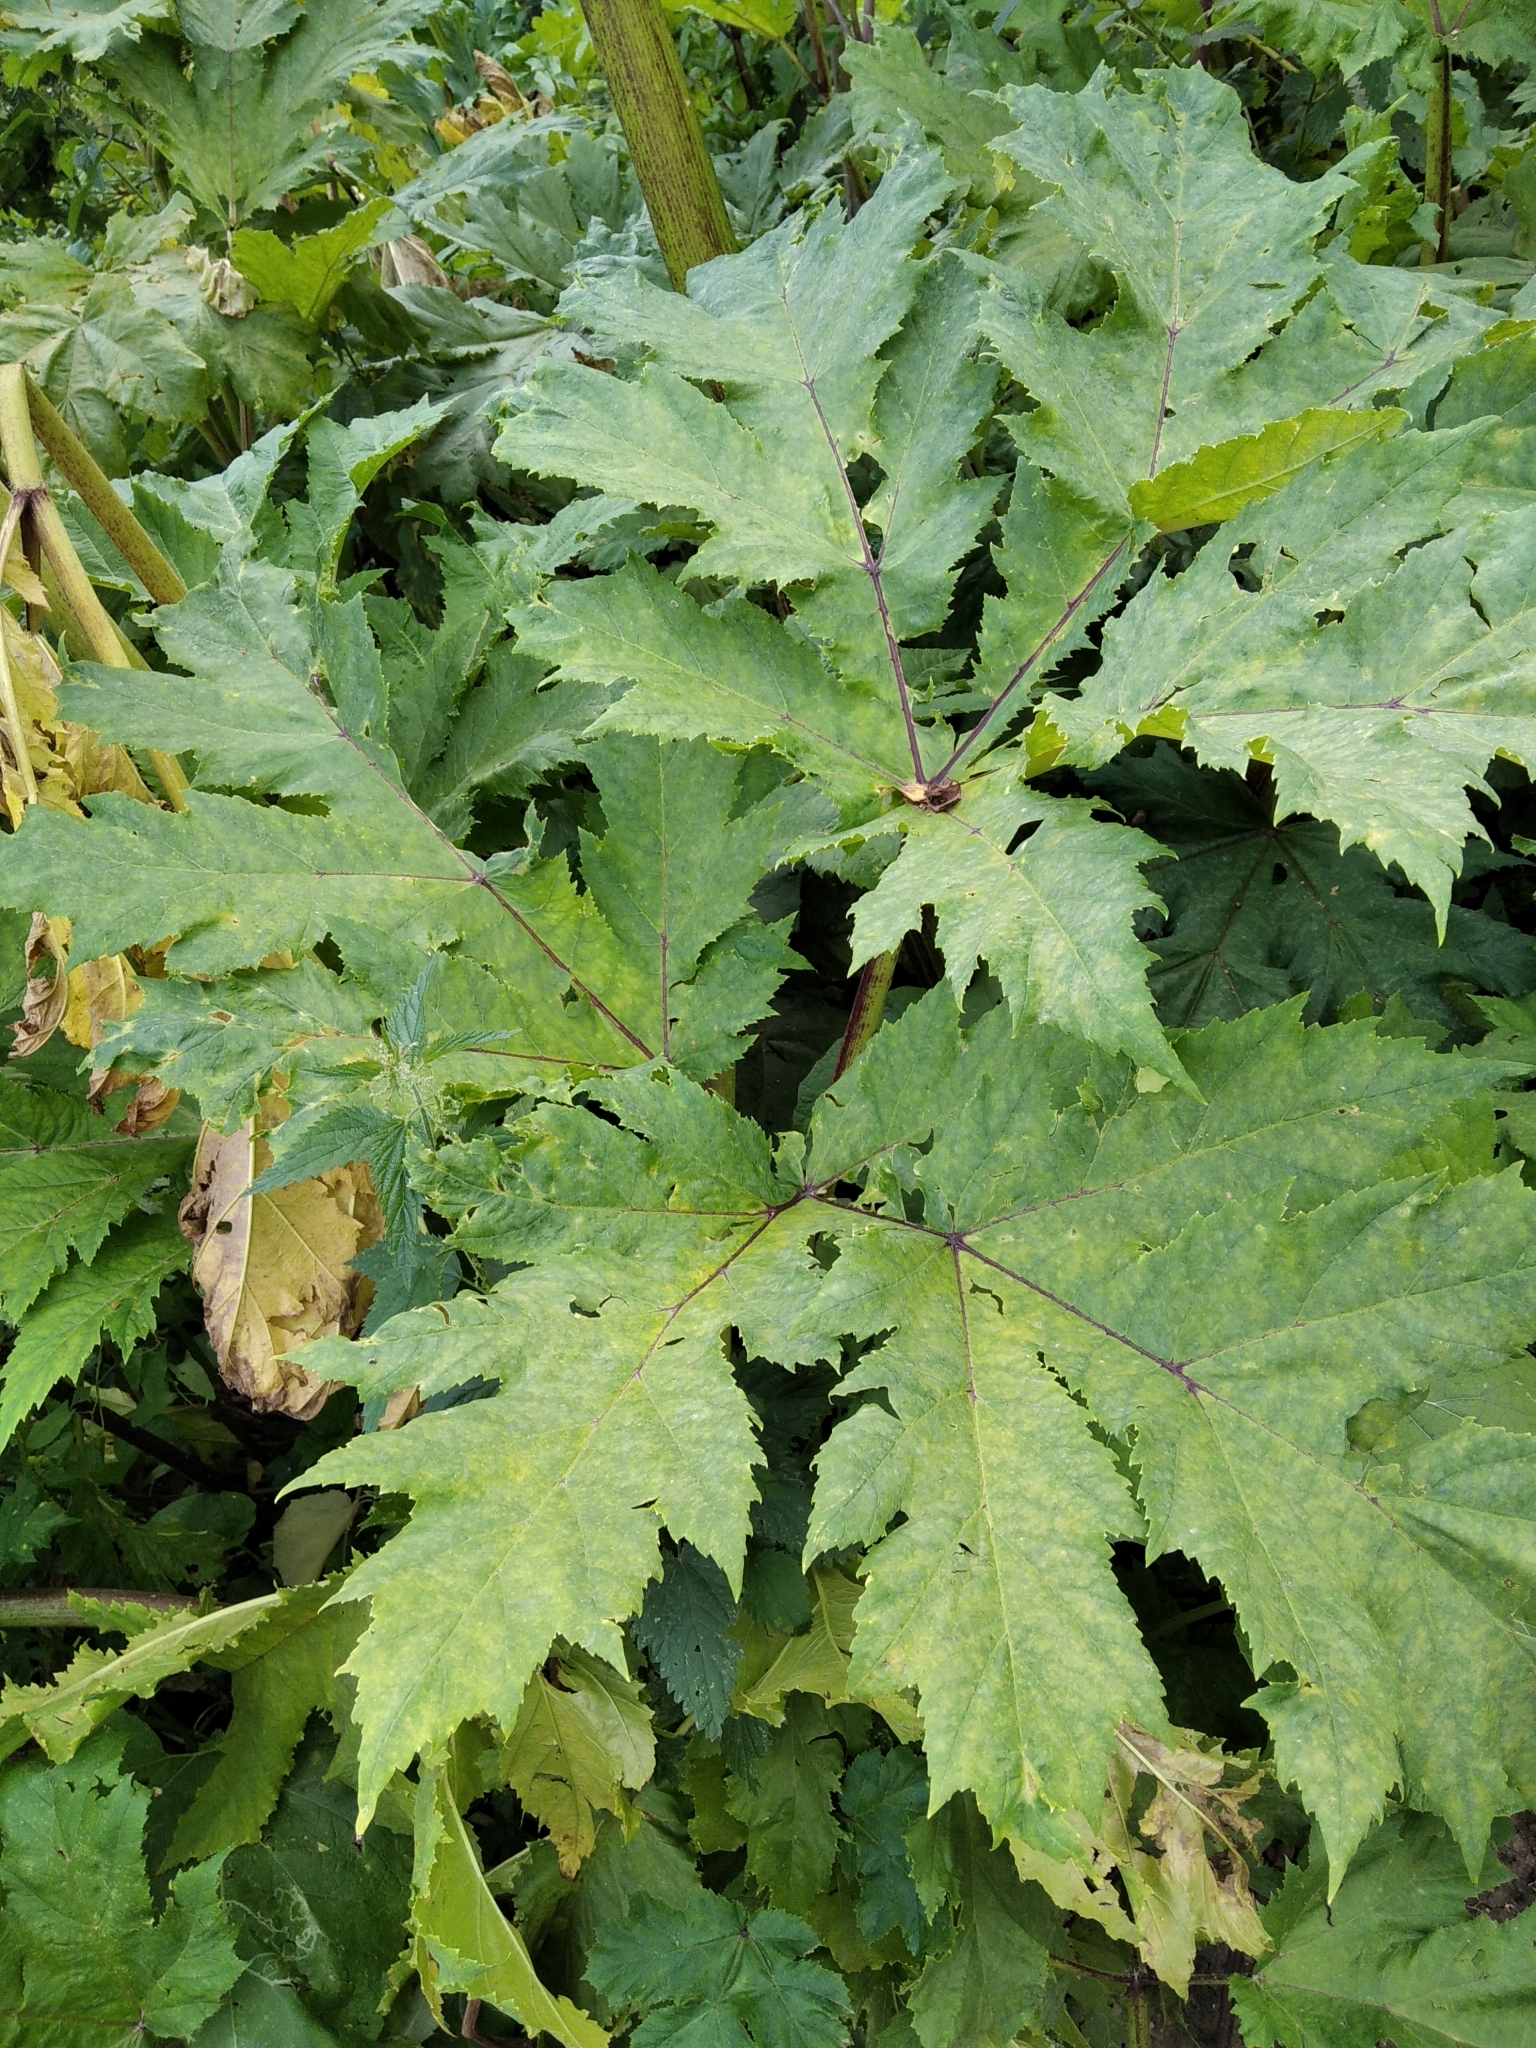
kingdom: Plantae
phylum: Tracheophyta
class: Magnoliopsida
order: Apiales
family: Apiaceae
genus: Heracleum
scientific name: Heracleum sosnowskyi
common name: Sosnowsky's hogweed
